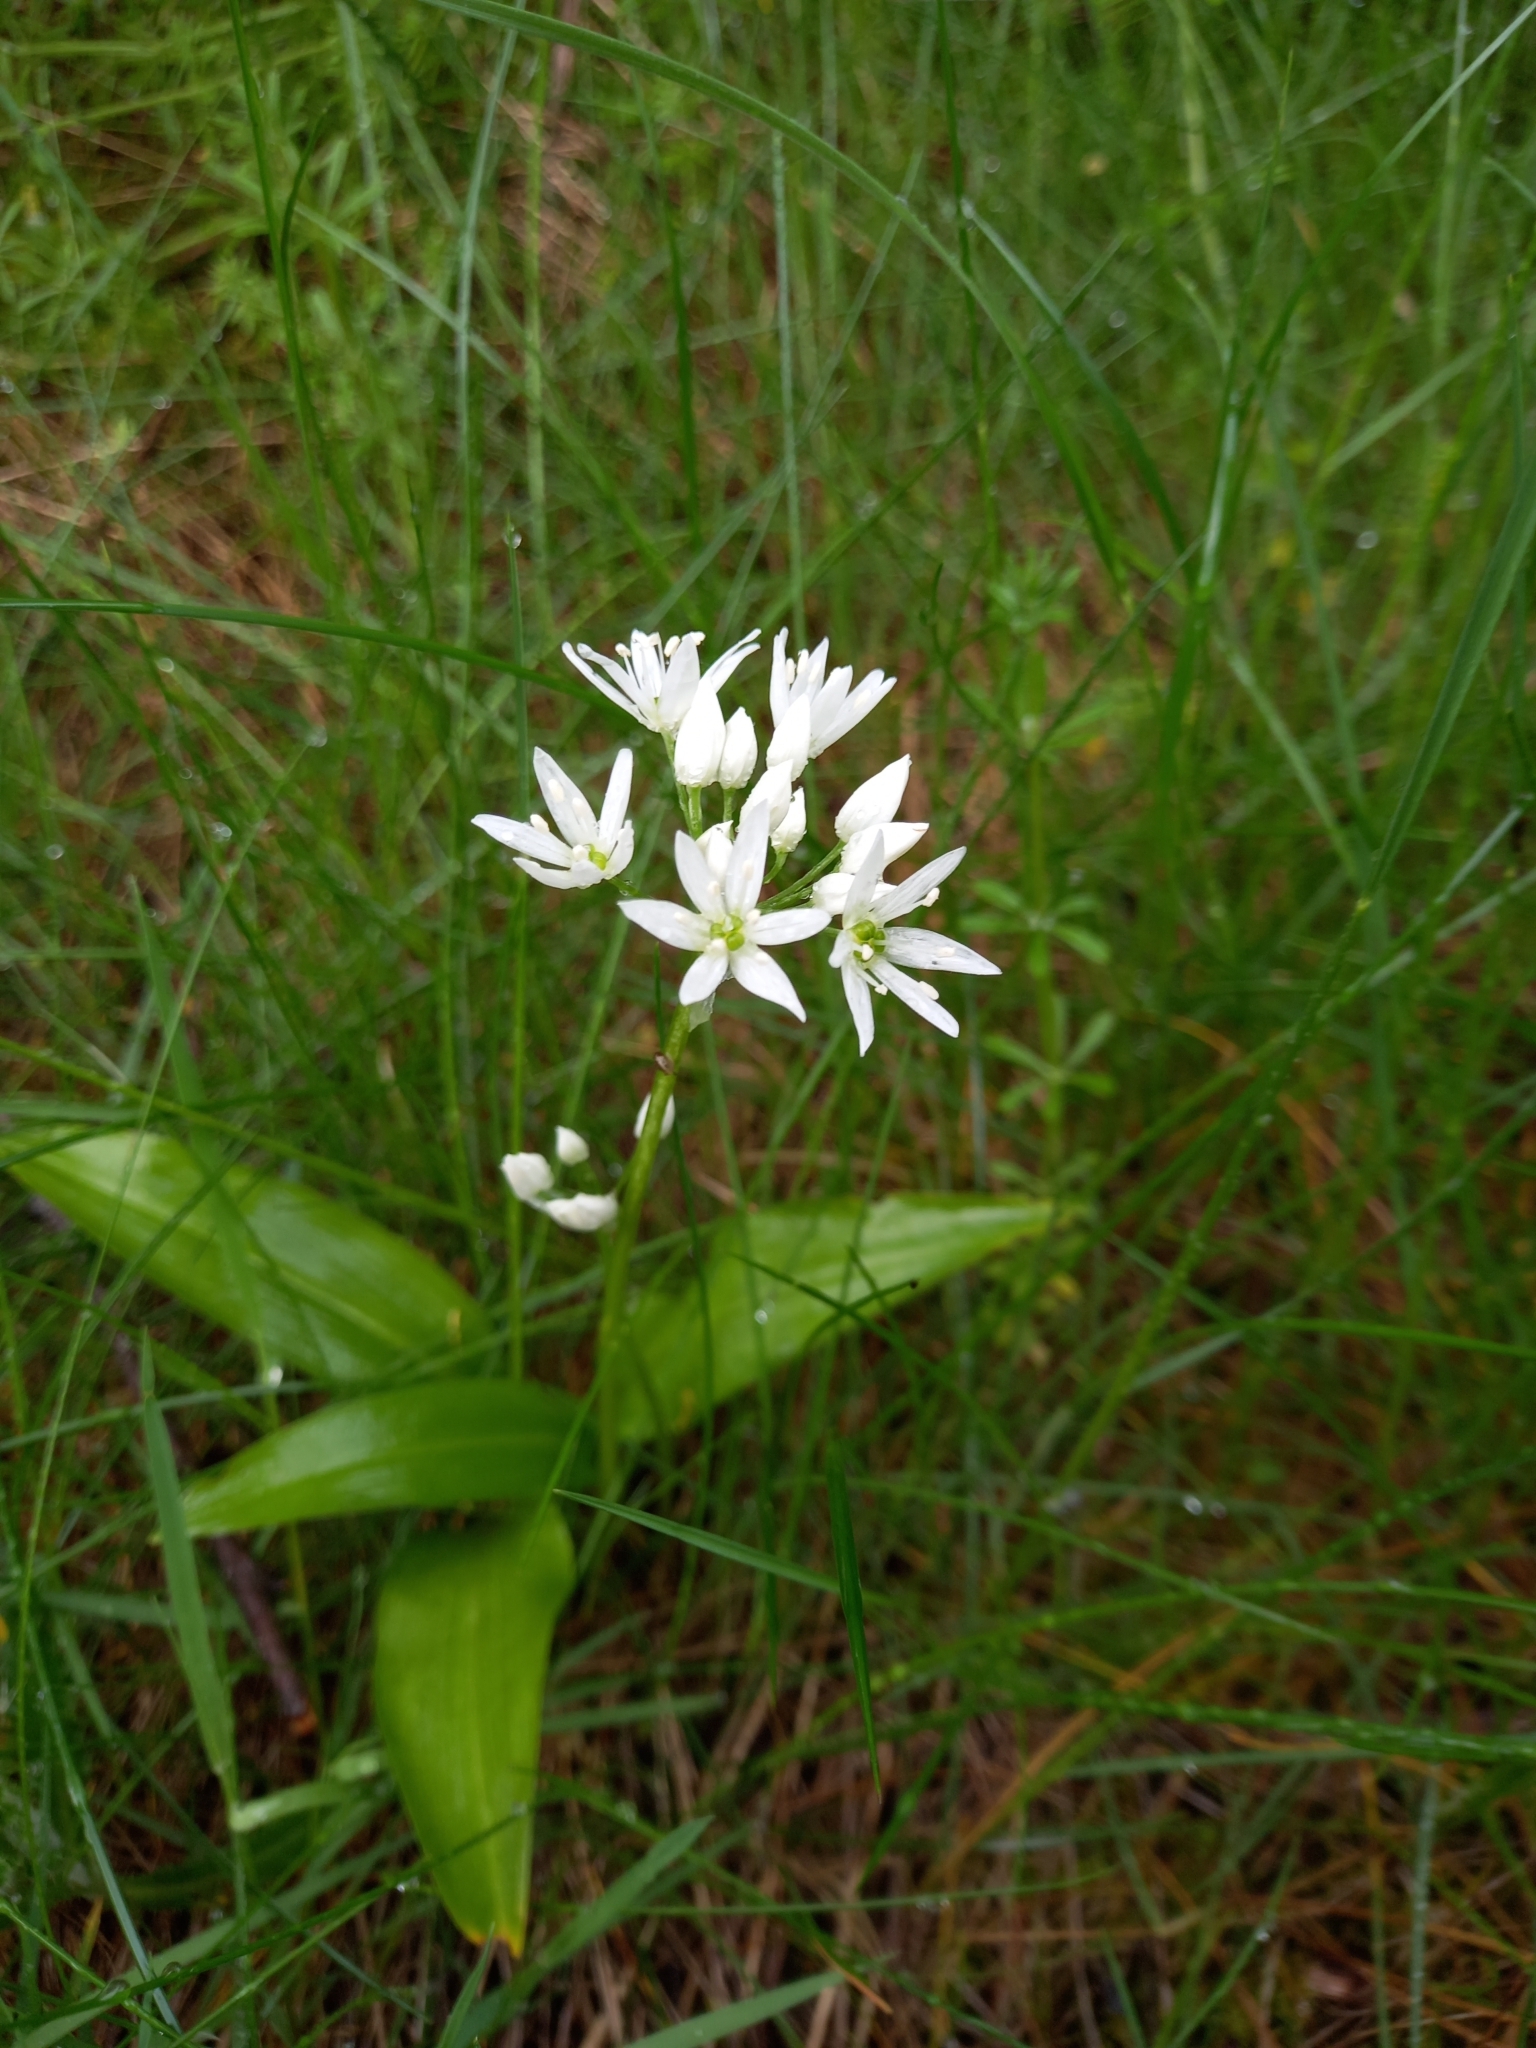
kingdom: Plantae
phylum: Tracheophyta
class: Liliopsida
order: Asparagales
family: Amaryllidaceae
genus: Allium
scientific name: Allium ursinum
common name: Ramsons
